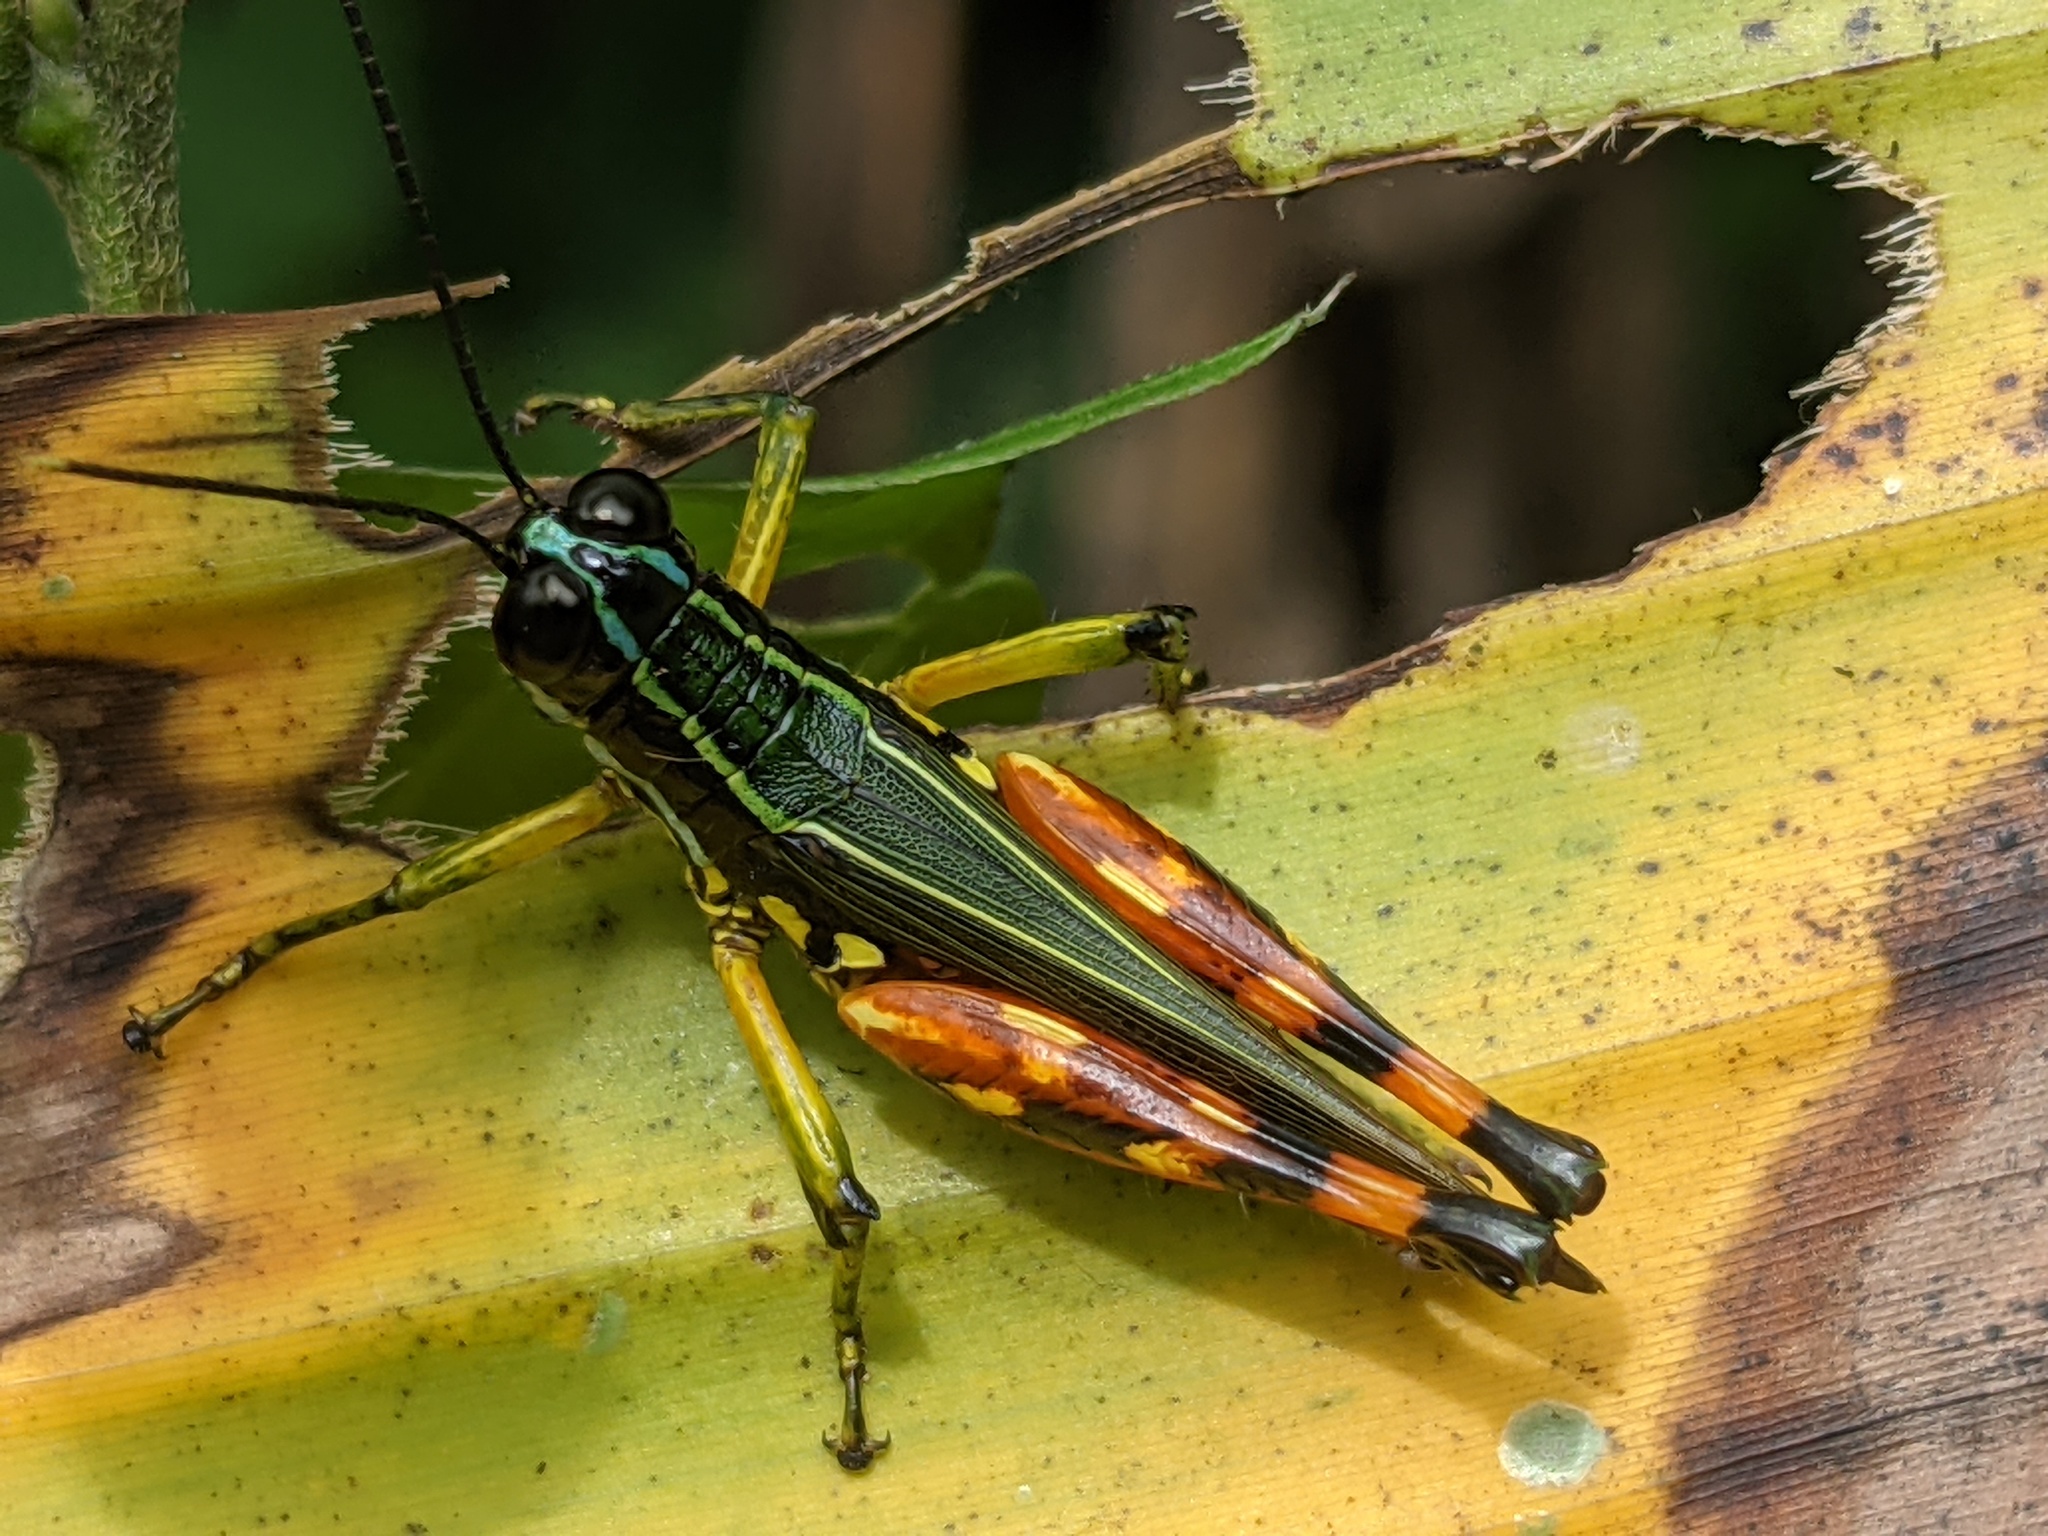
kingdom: Animalia
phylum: Arthropoda
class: Insecta
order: Orthoptera
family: Acrididae
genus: Tetrataenia
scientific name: Tetrataenia surinama
